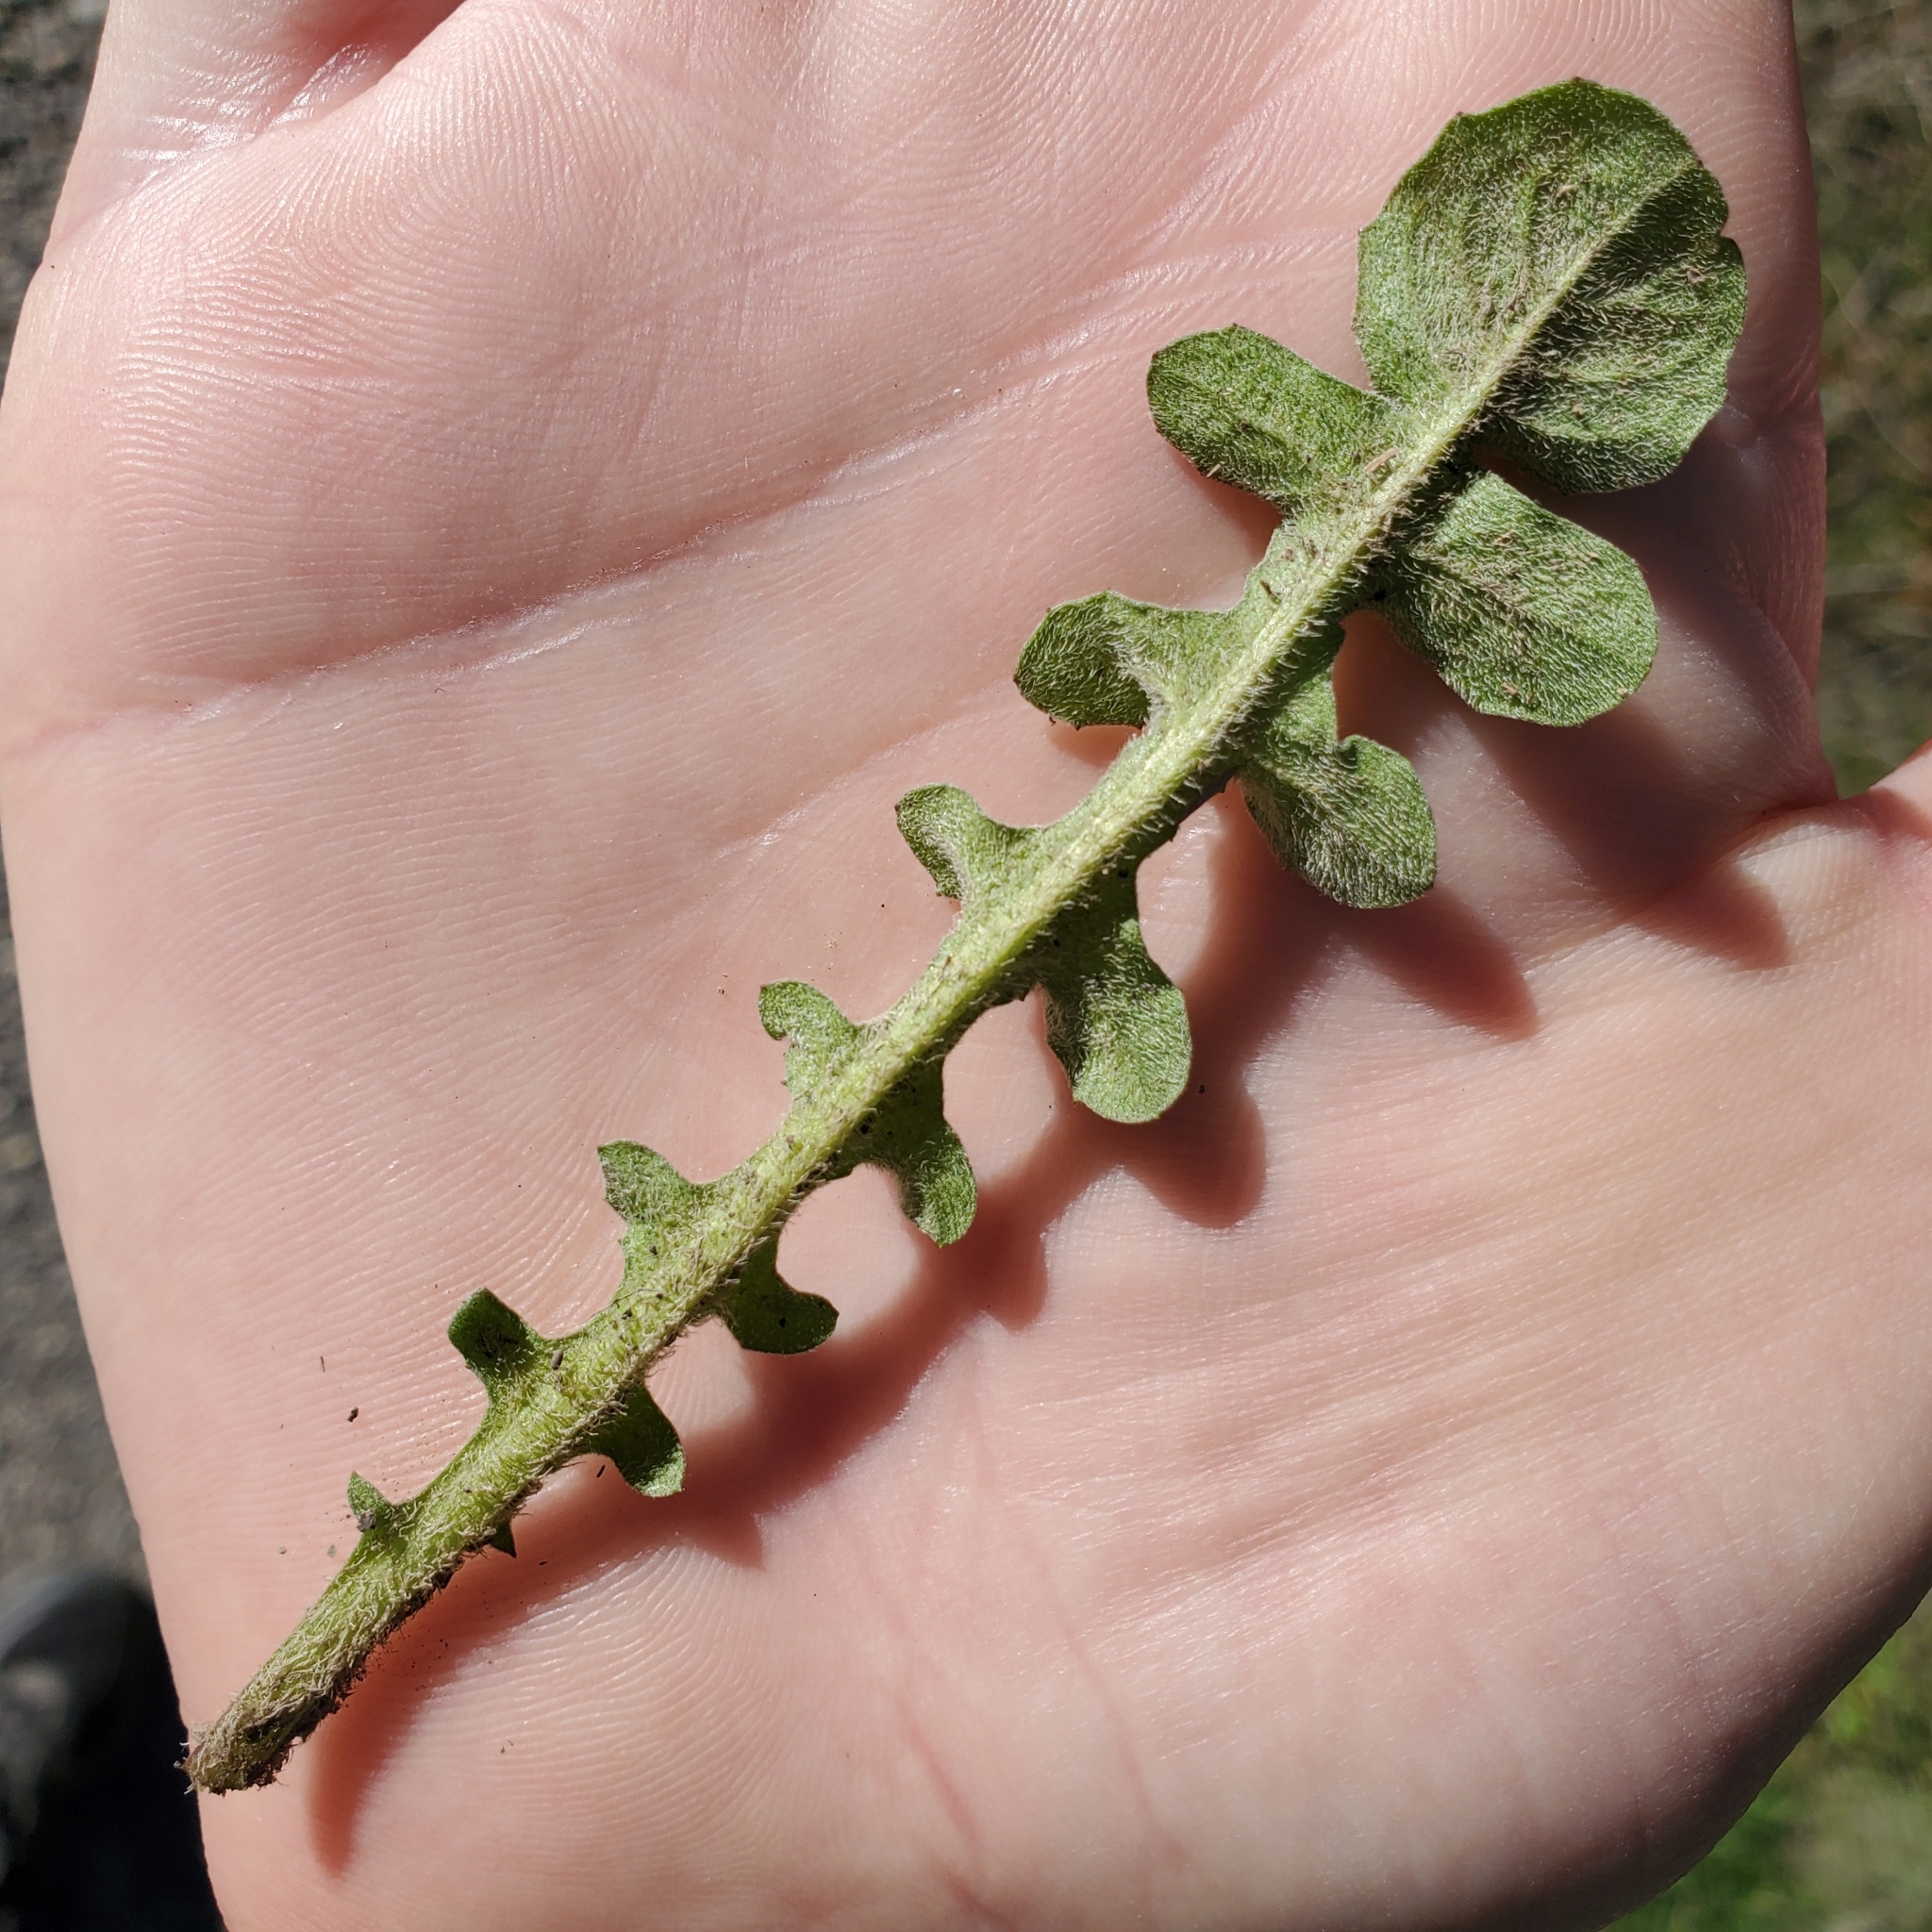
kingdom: Plantae
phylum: Tracheophyta
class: Magnoliopsida
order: Asterales
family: Asteraceae
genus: Centaurea
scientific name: Centaurea melitensis
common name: Maltese star-thistle
